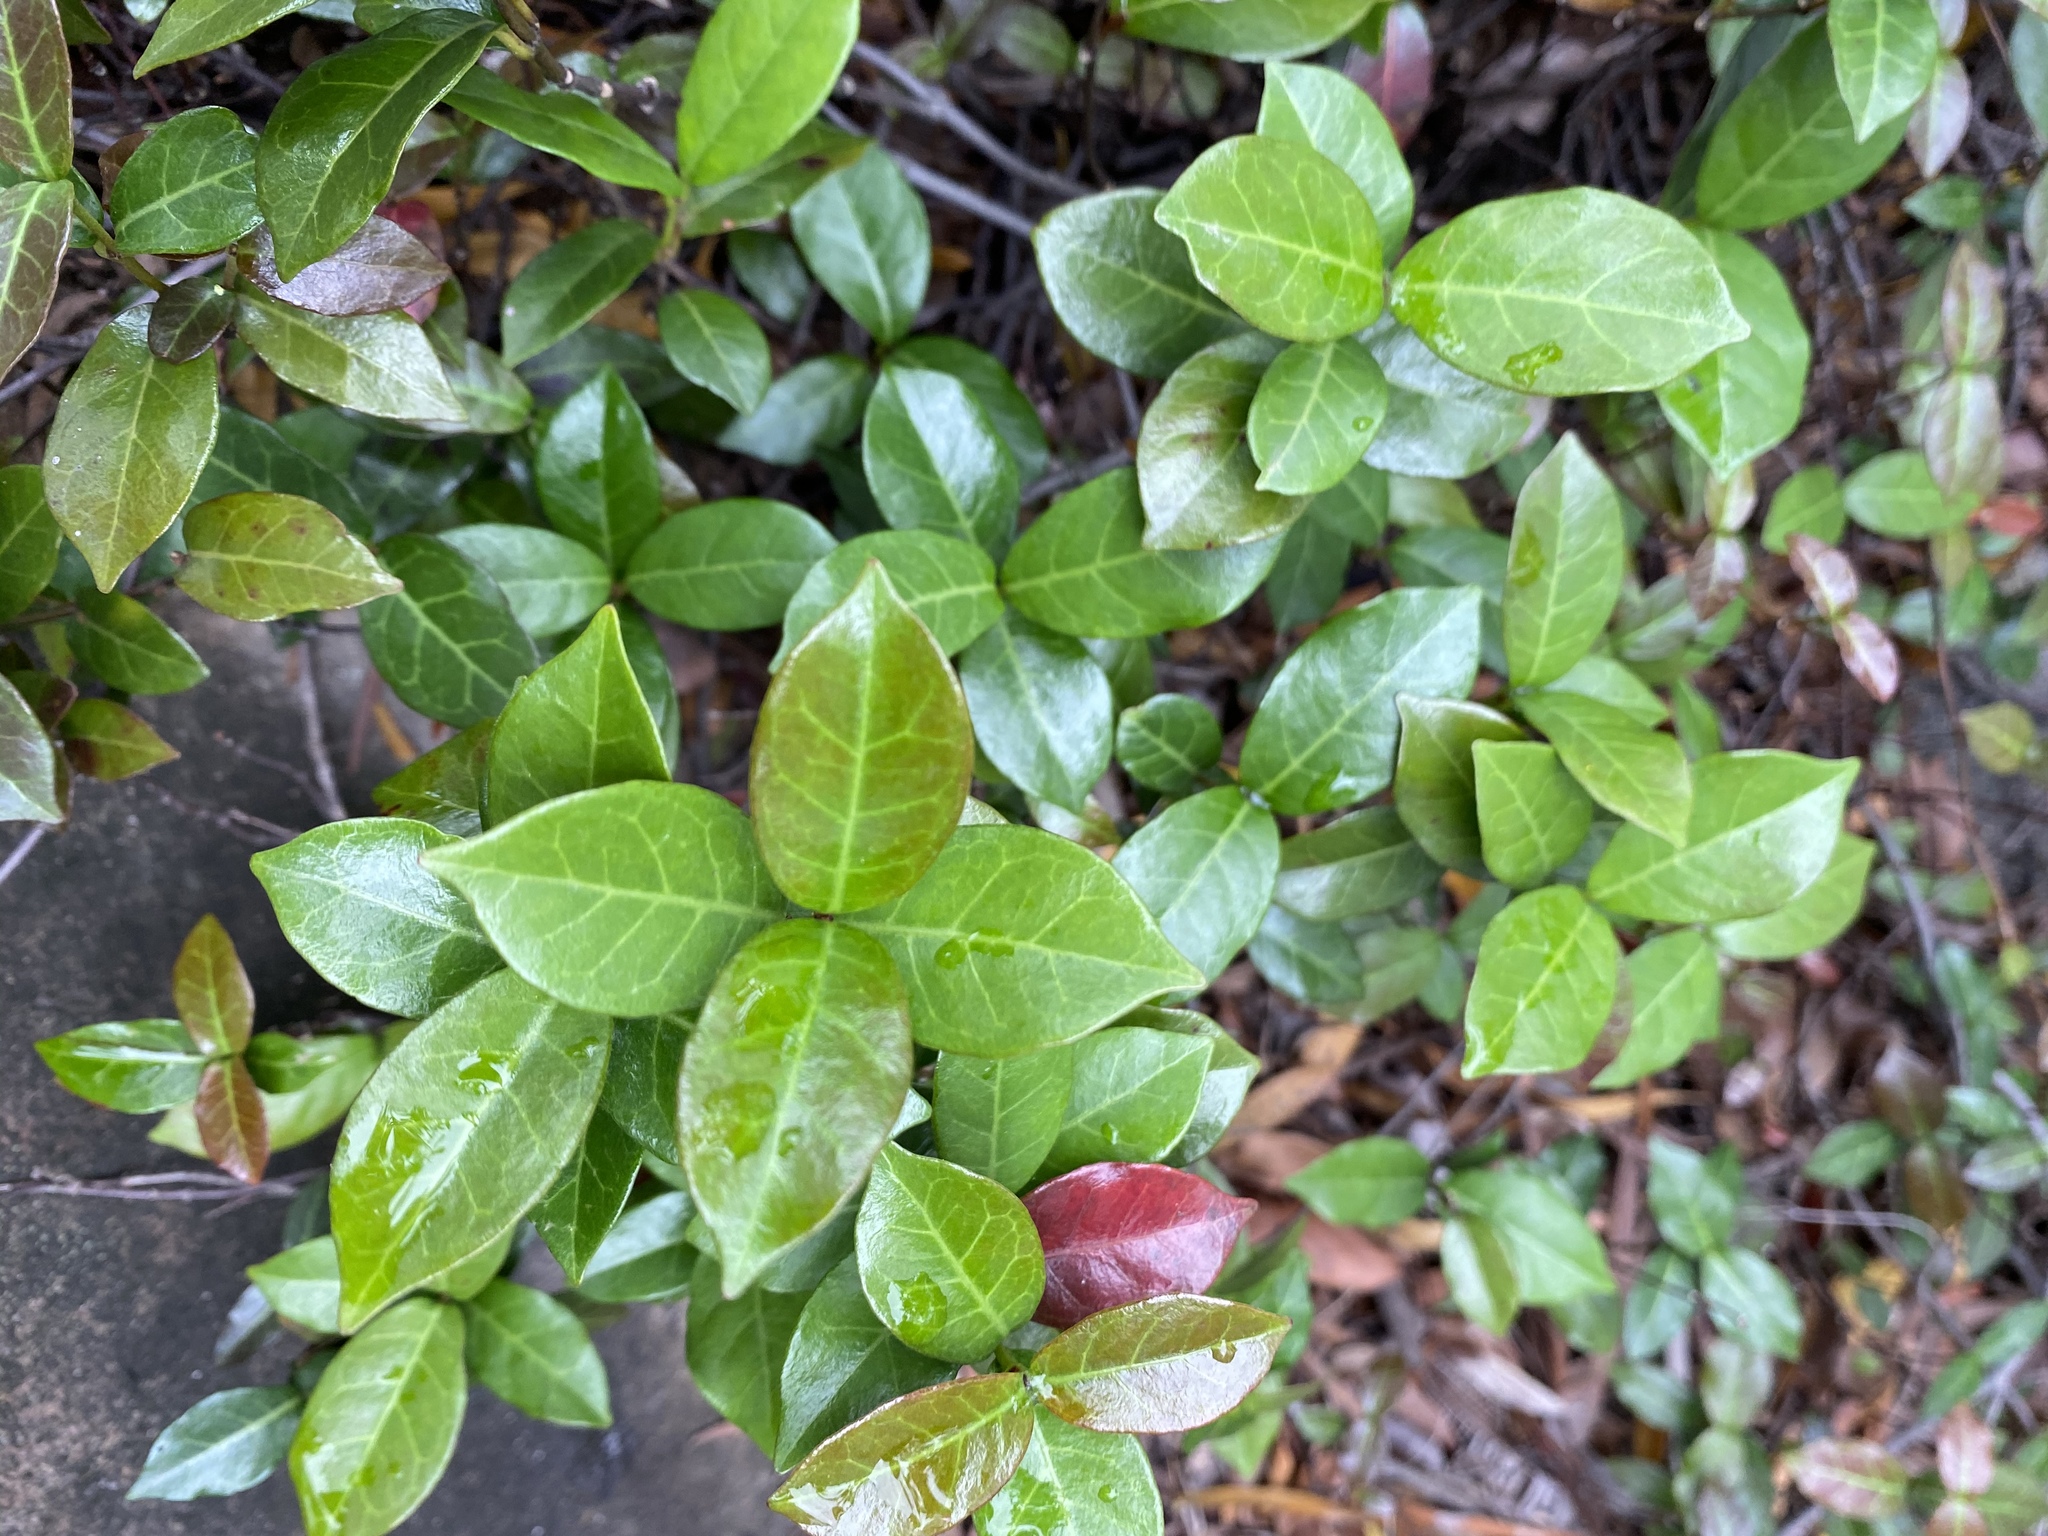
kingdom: Plantae
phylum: Tracheophyta
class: Magnoliopsida
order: Gentianales
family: Apocynaceae
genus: Trachelospermum
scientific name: Trachelospermum asiaticum
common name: Asiatic jasmine
